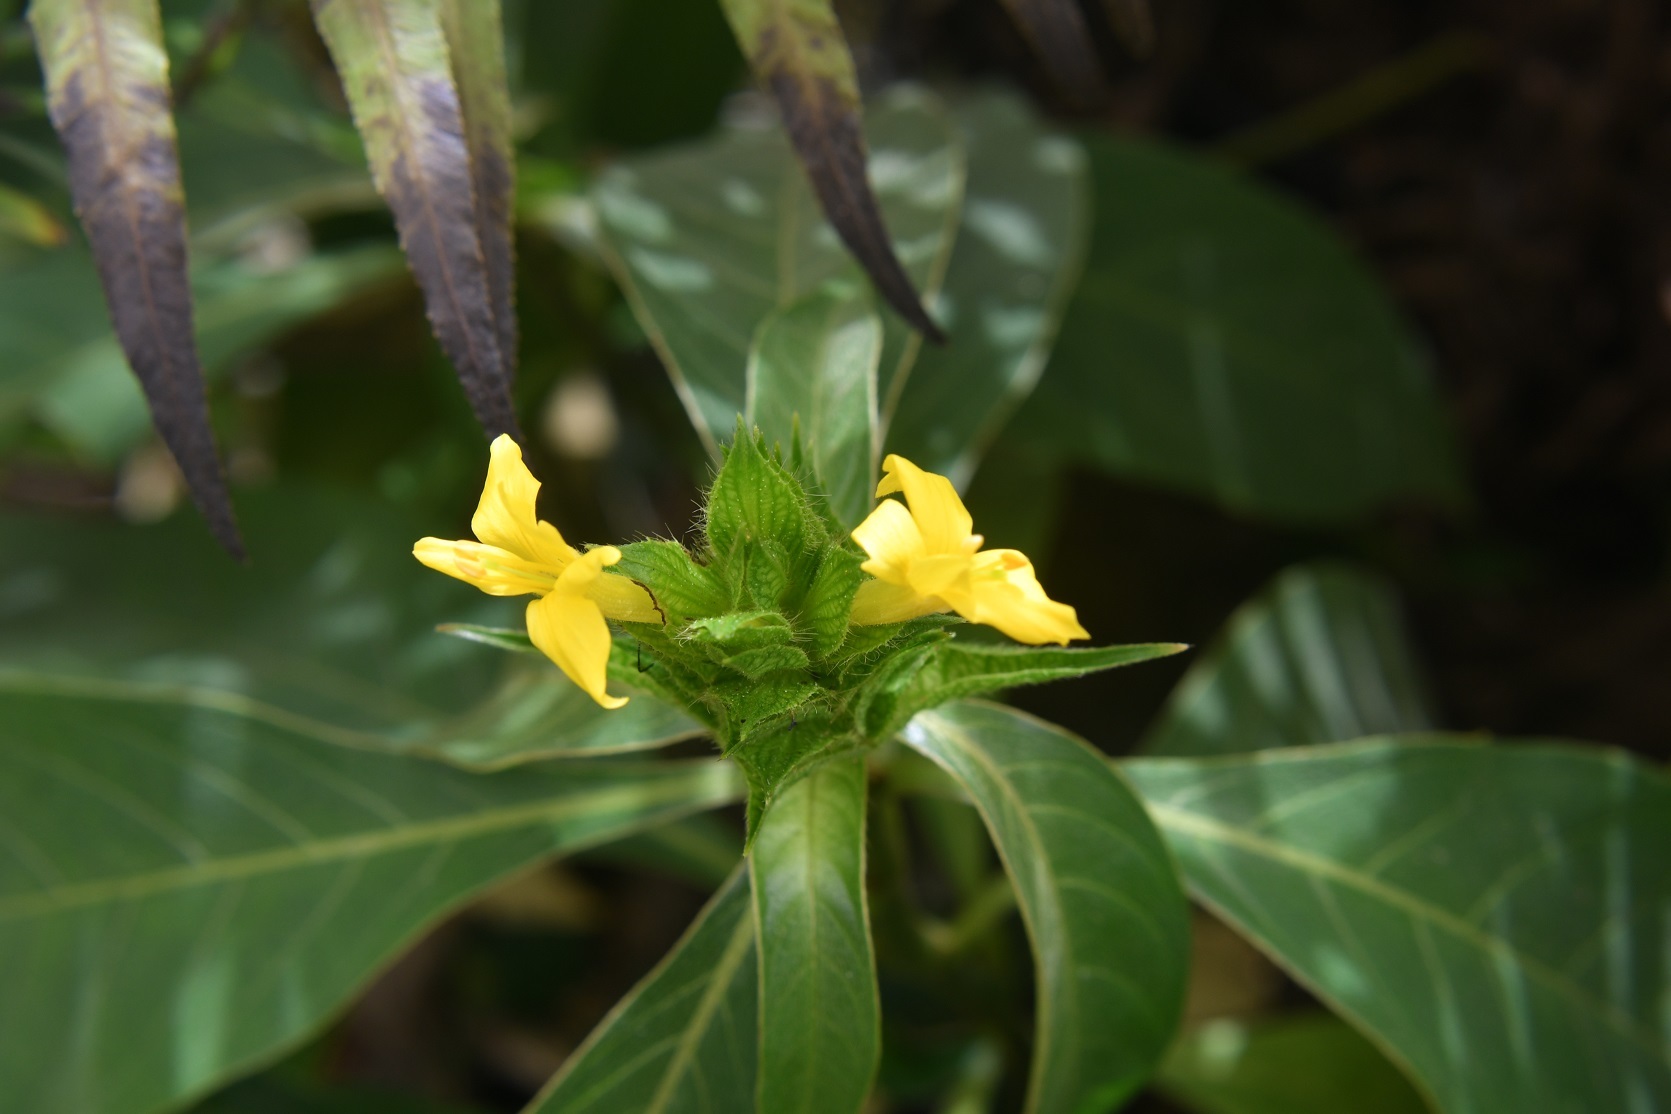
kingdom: Plantae
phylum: Tracheophyta
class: Magnoliopsida
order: Lamiales
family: Acanthaceae
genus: Barleria
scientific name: Barleria oenotheroides
